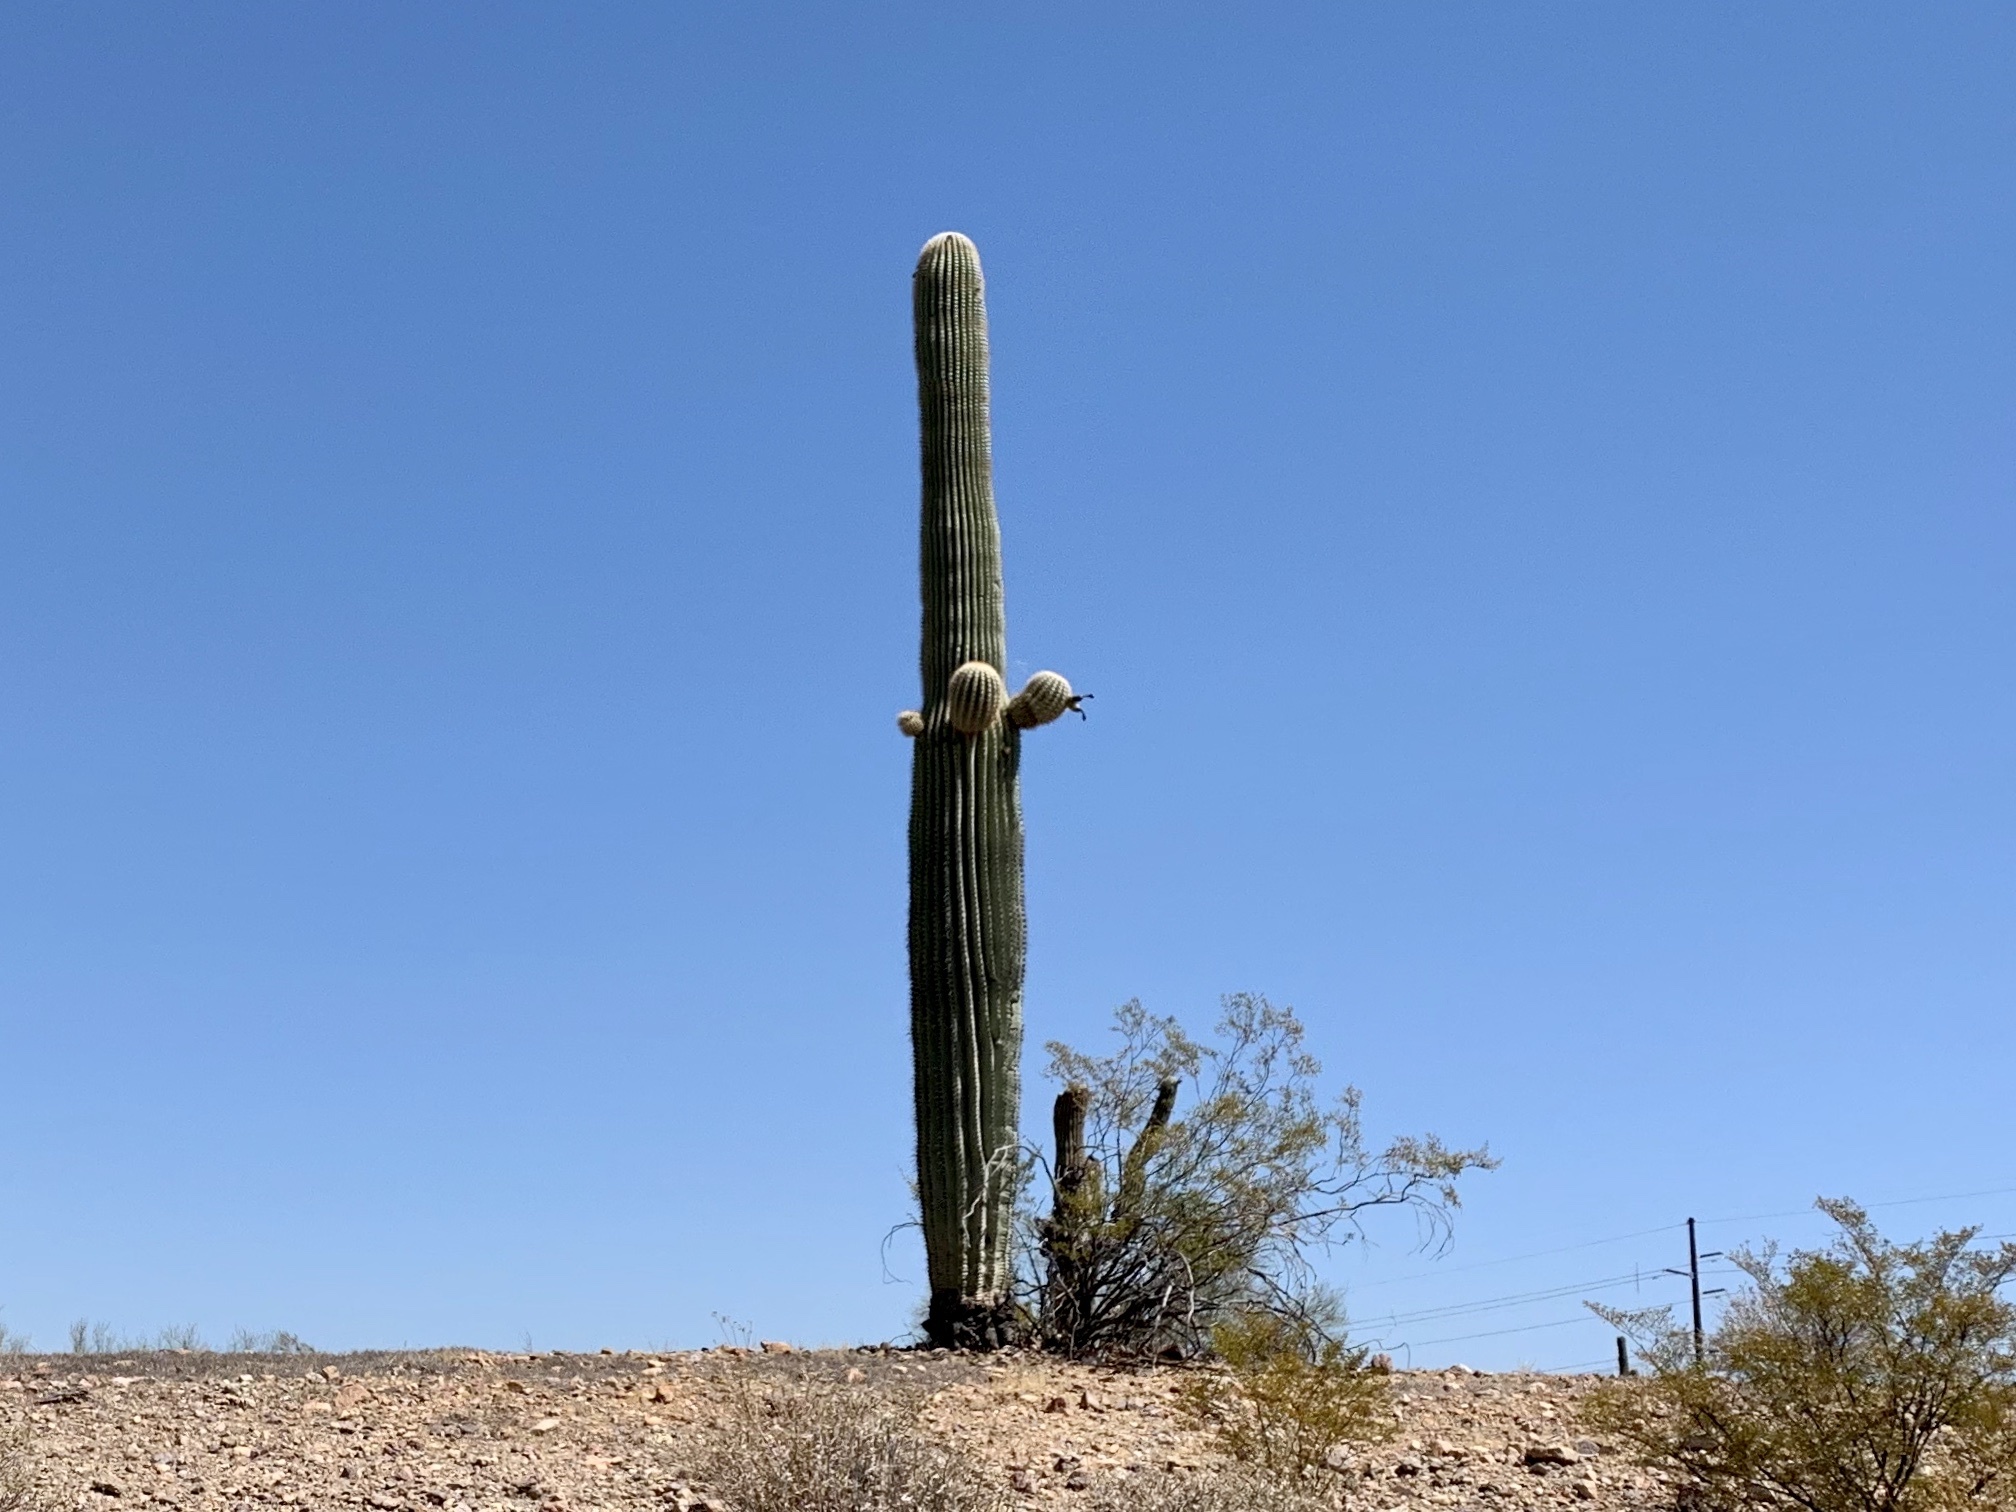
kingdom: Plantae
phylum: Tracheophyta
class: Magnoliopsida
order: Caryophyllales
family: Cactaceae
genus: Carnegiea
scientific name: Carnegiea gigantea
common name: Saguaro
